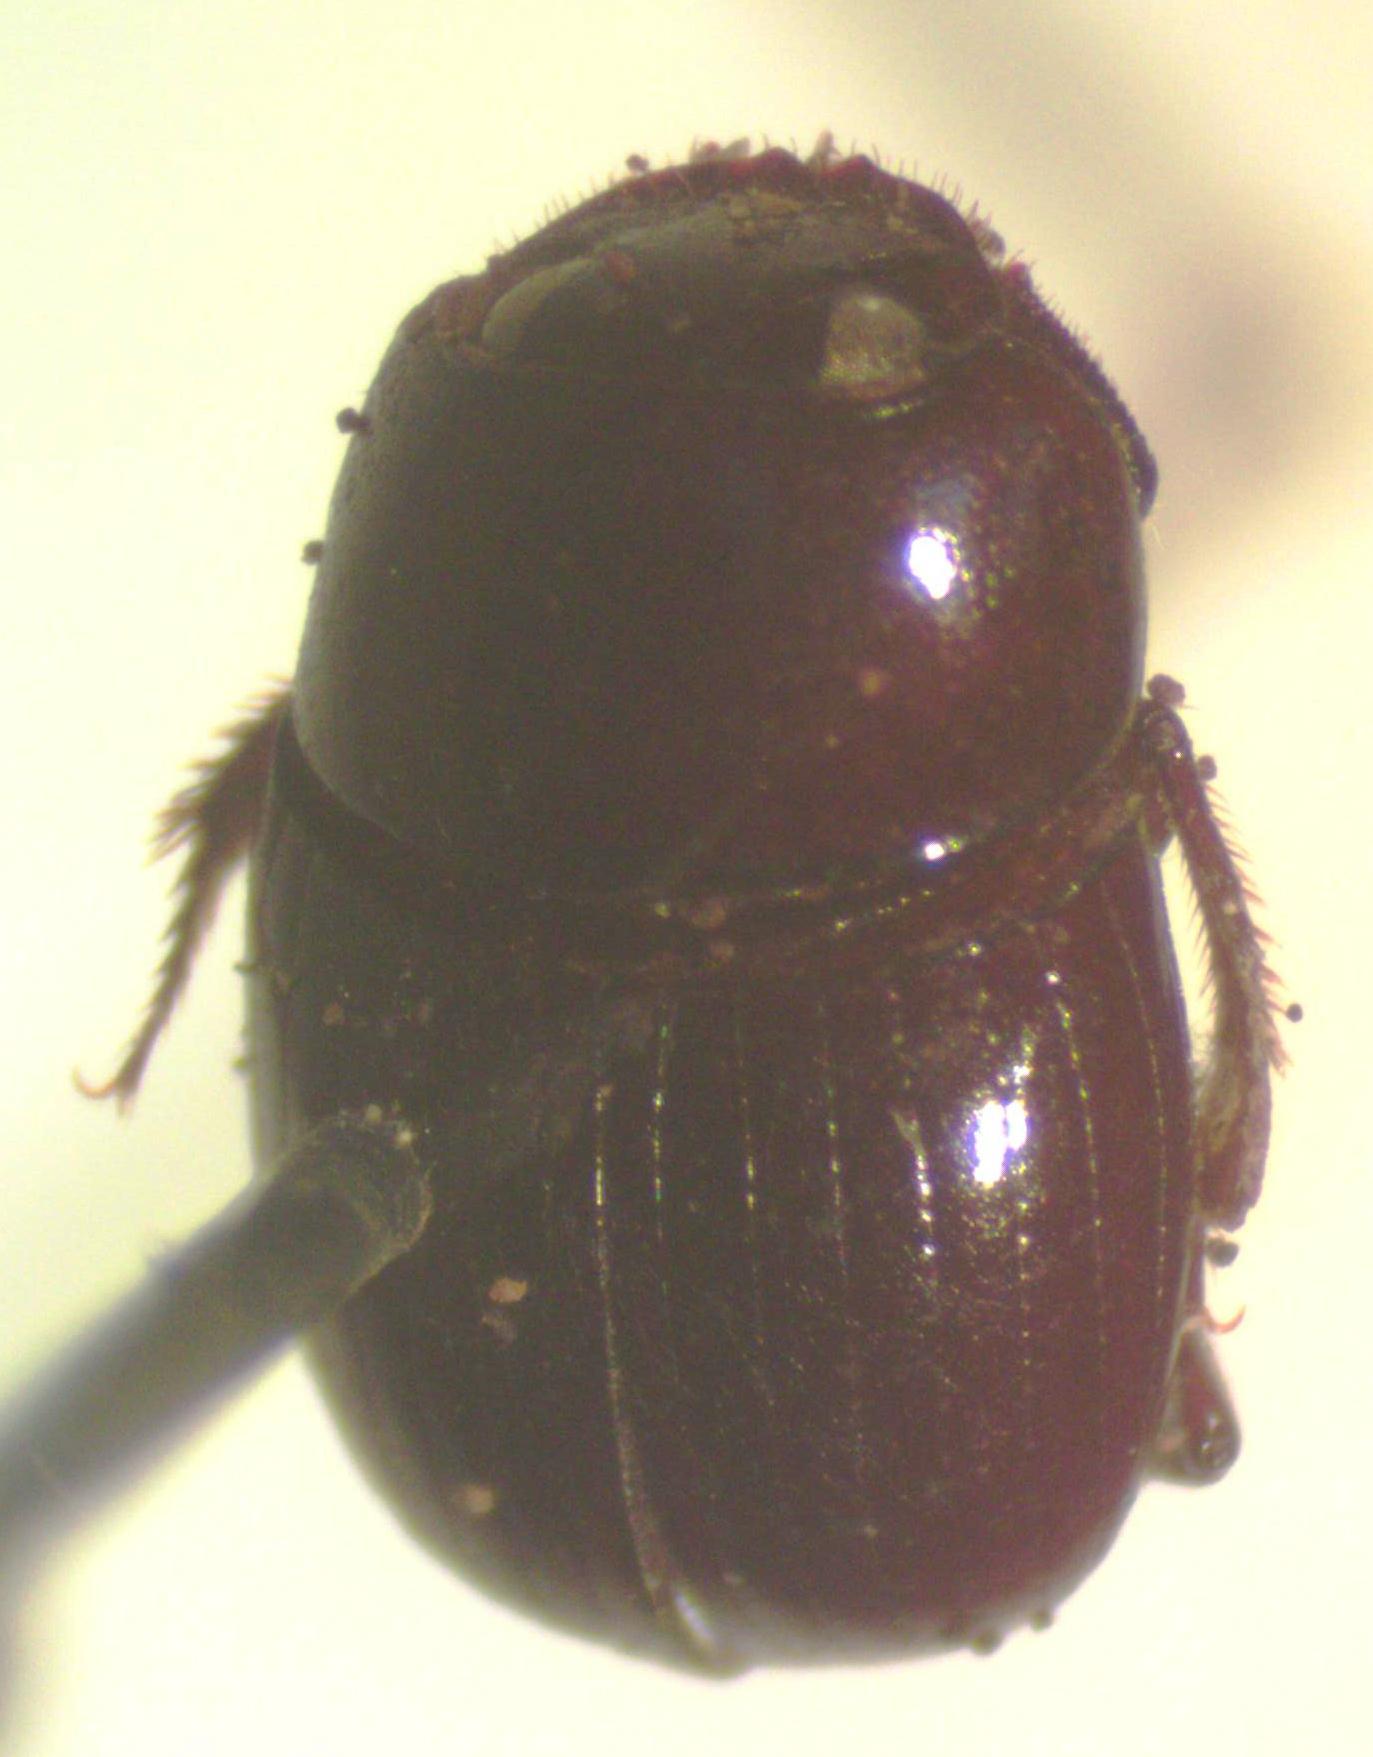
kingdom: Animalia
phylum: Arthropoda
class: Insecta
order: Coleoptera
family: Scarabaeidae
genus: Agamopus
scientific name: Agamopus lampros
